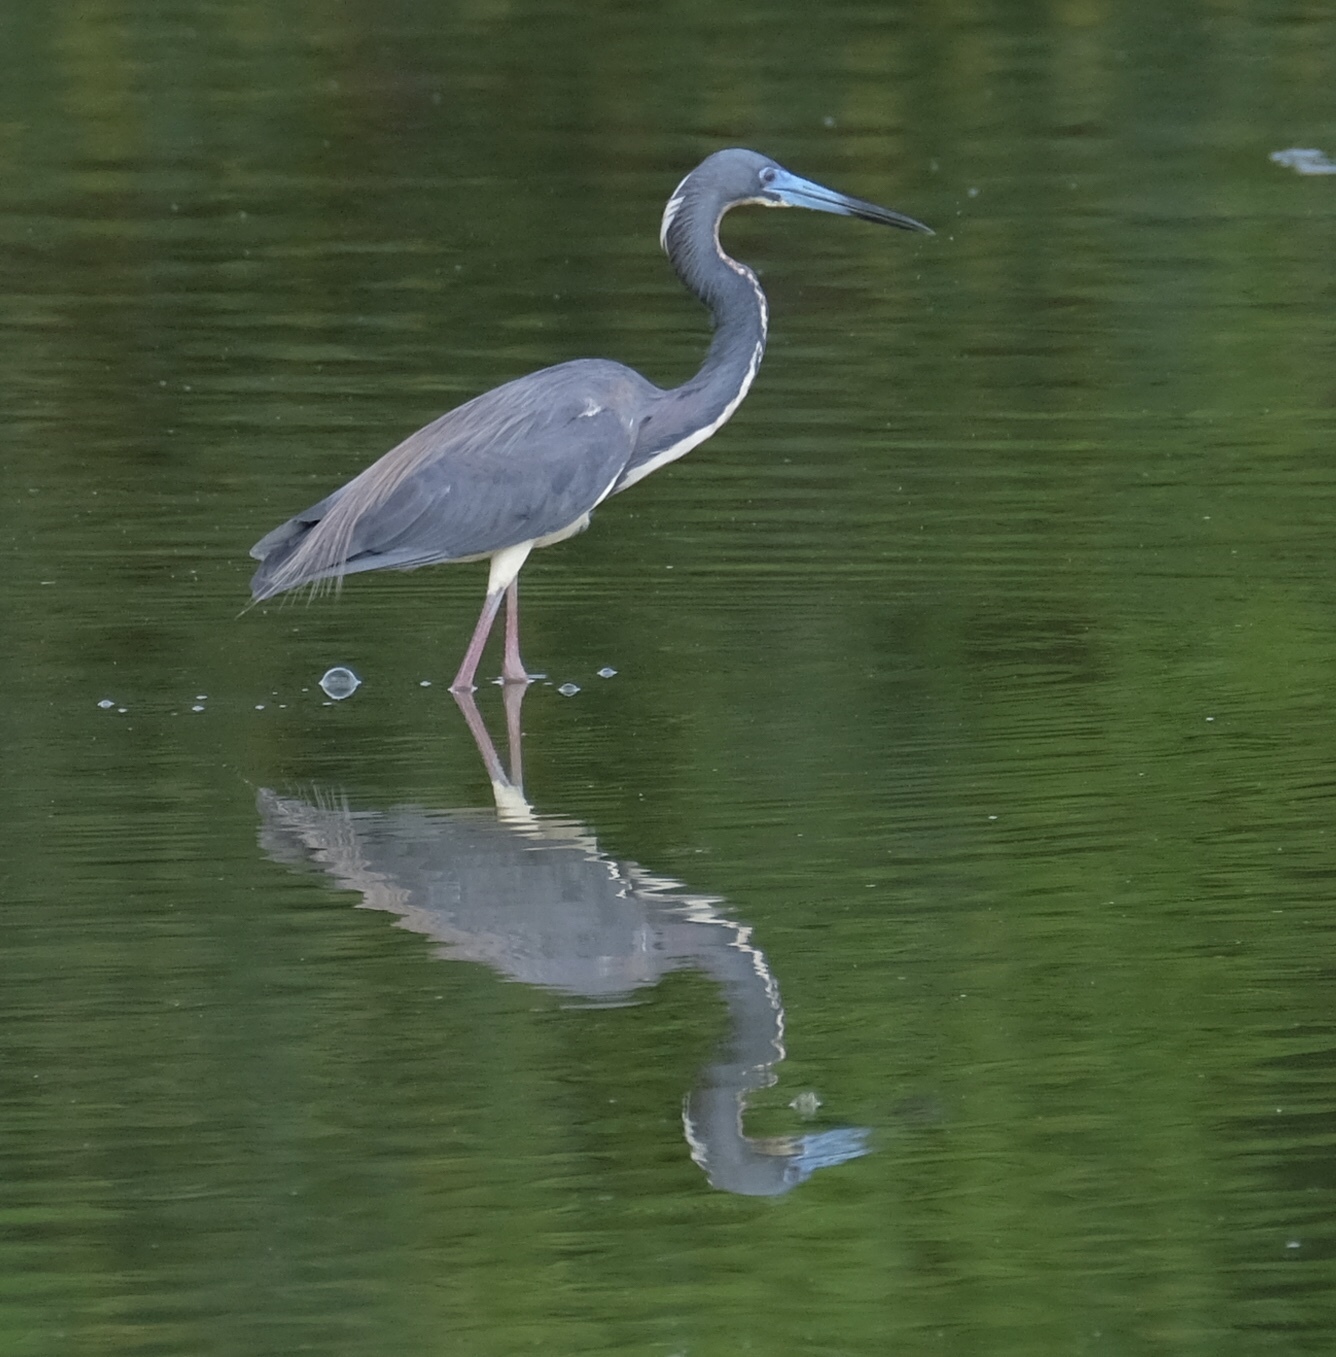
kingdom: Animalia
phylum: Chordata
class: Aves
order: Pelecaniformes
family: Ardeidae
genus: Egretta
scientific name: Egretta tricolor
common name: Tricolored heron
